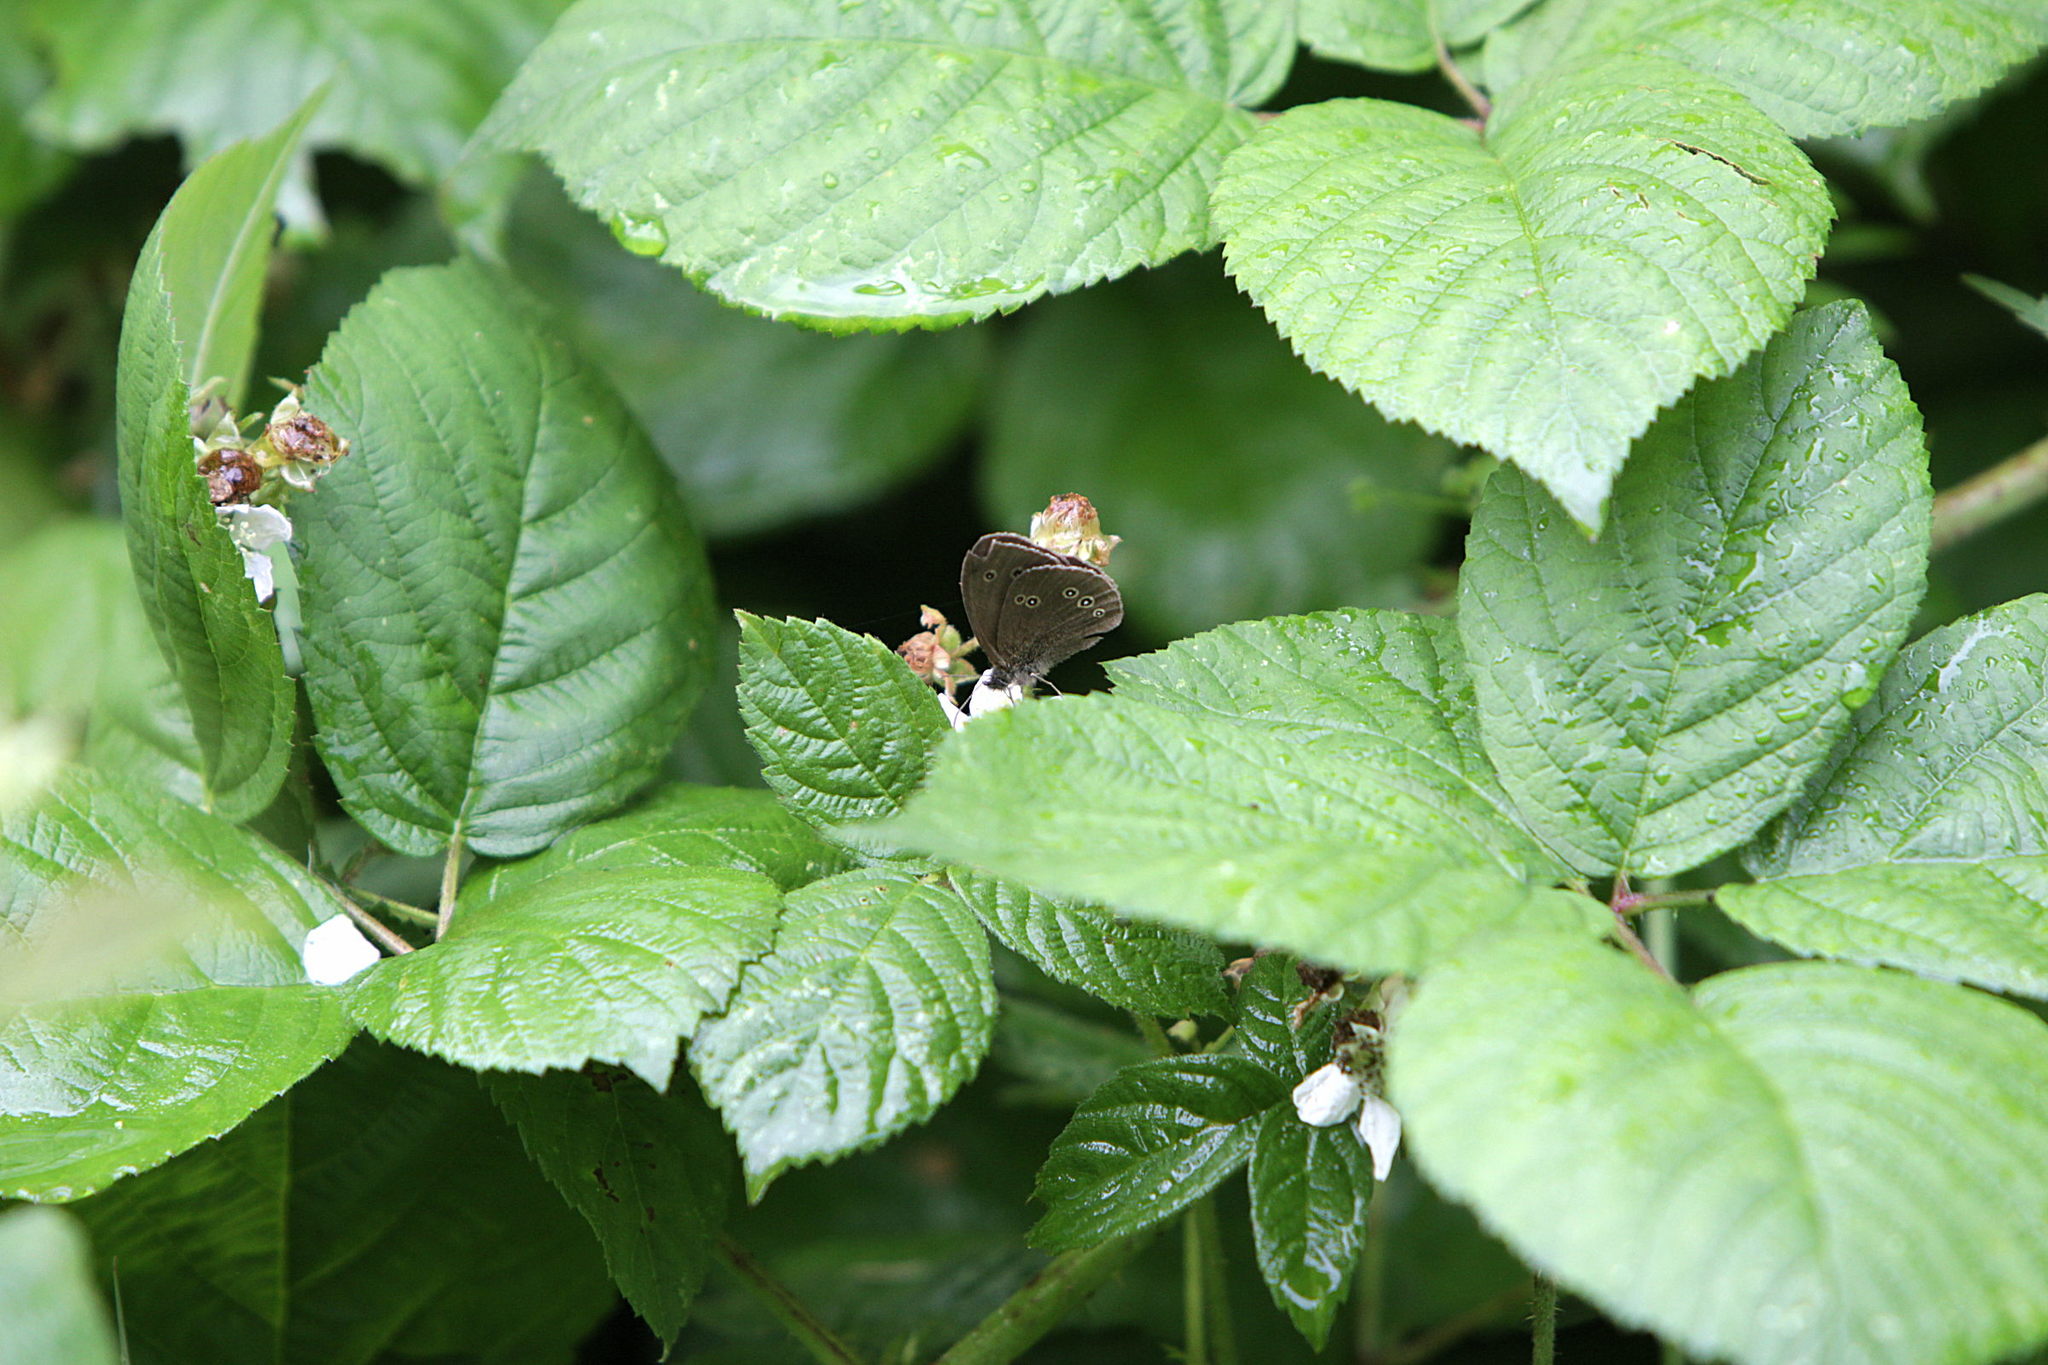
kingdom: Animalia
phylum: Arthropoda
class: Insecta
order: Lepidoptera
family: Nymphalidae
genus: Aphantopus
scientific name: Aphantopus hyperantus
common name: Ringlet
